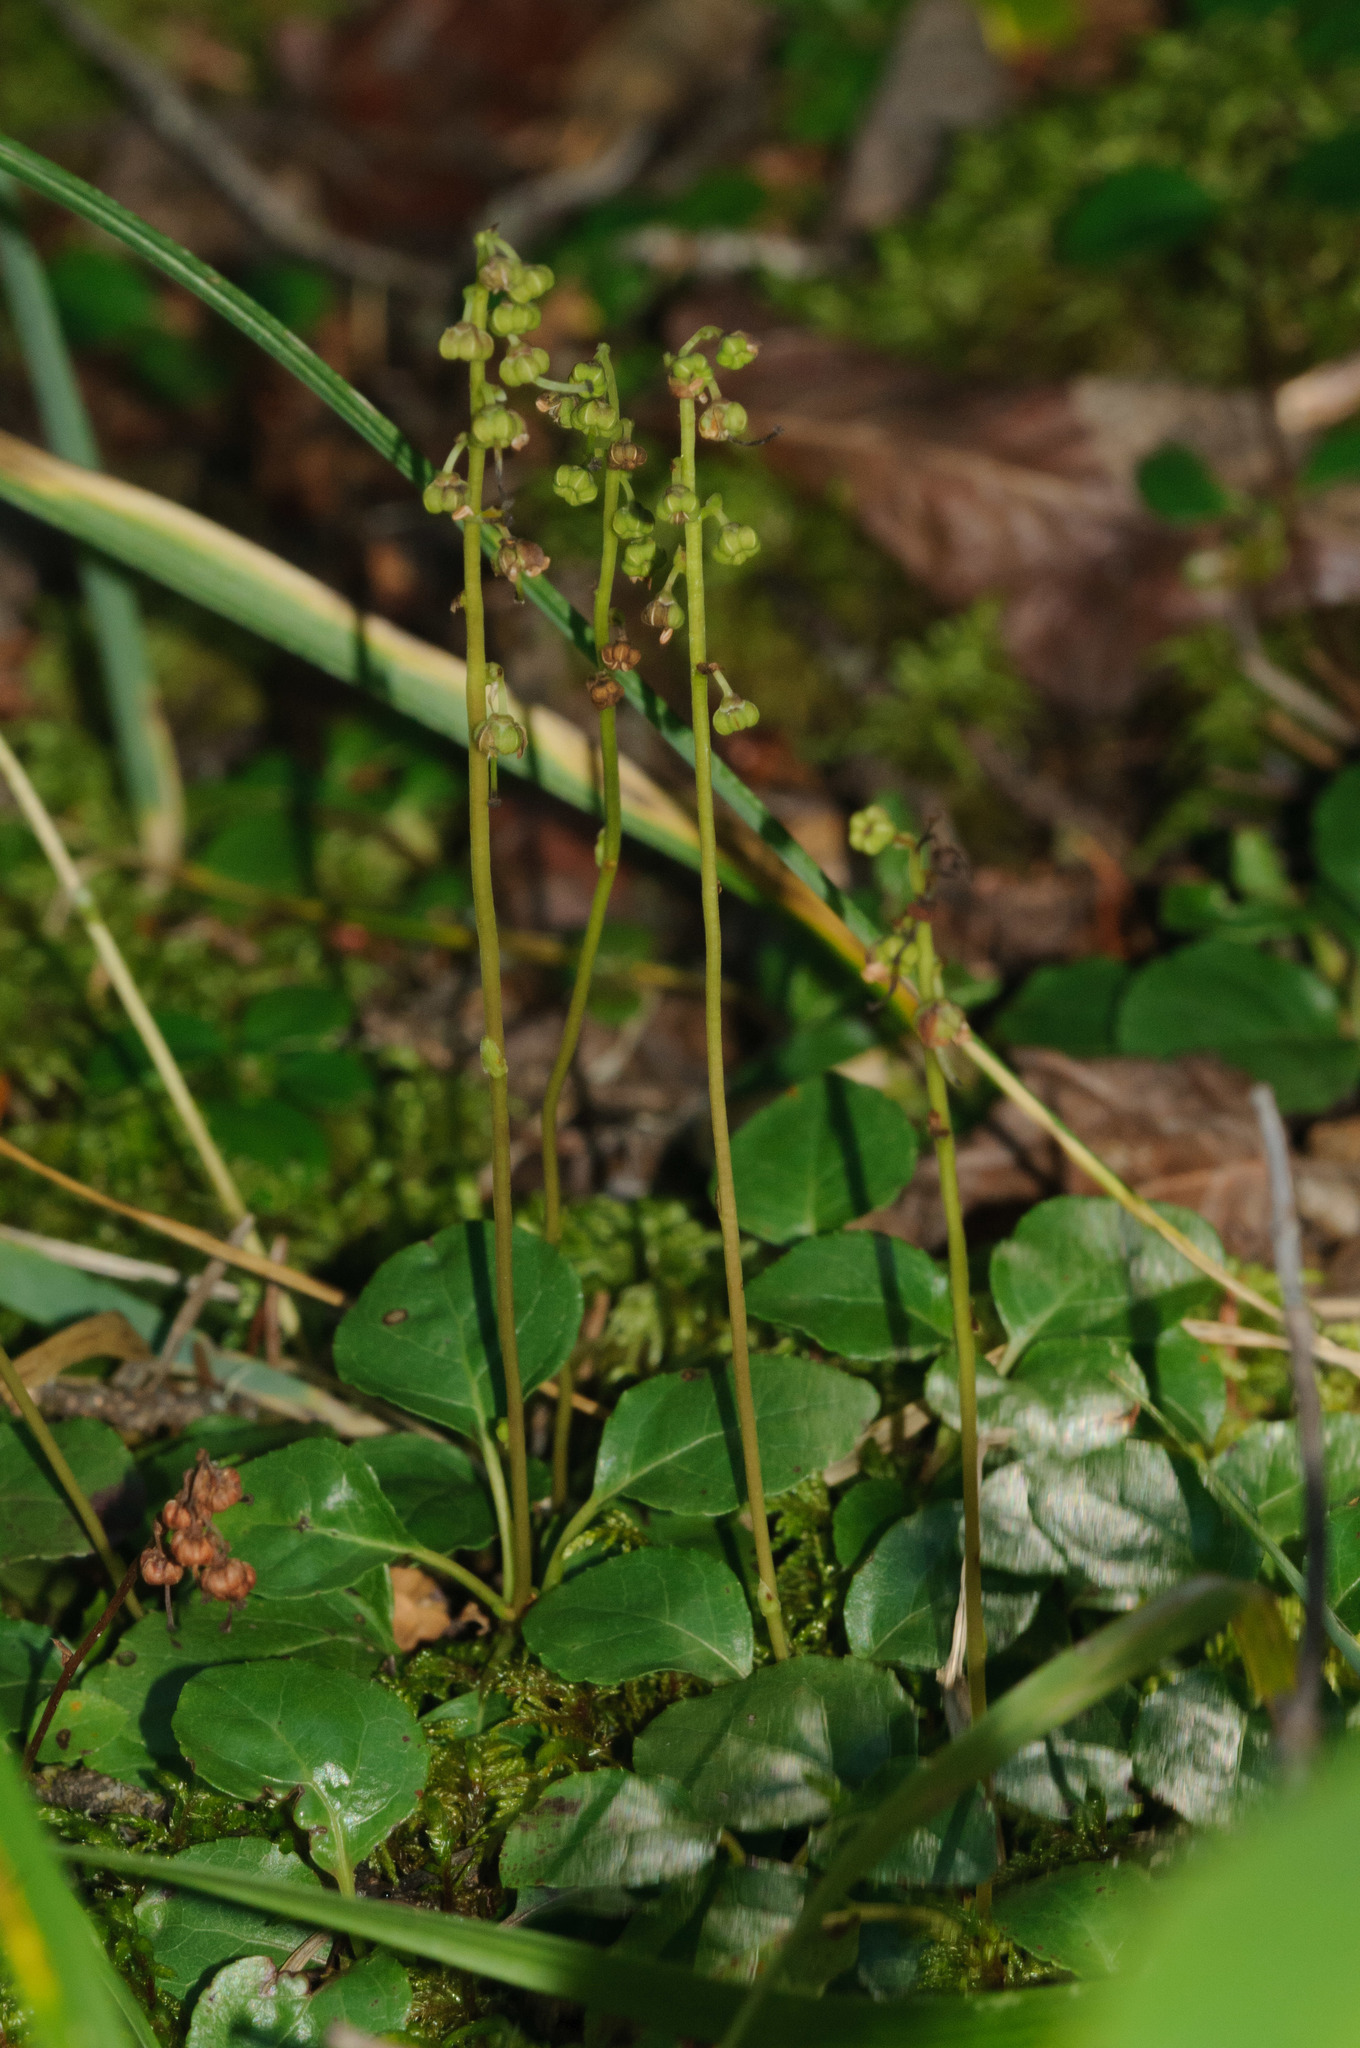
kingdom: Plantae
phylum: Tracheophyta
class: Magnoliopsida
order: Ericales
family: Ericaceae
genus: Orthilia
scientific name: Orthilia secunda
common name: One-sided orthilia
